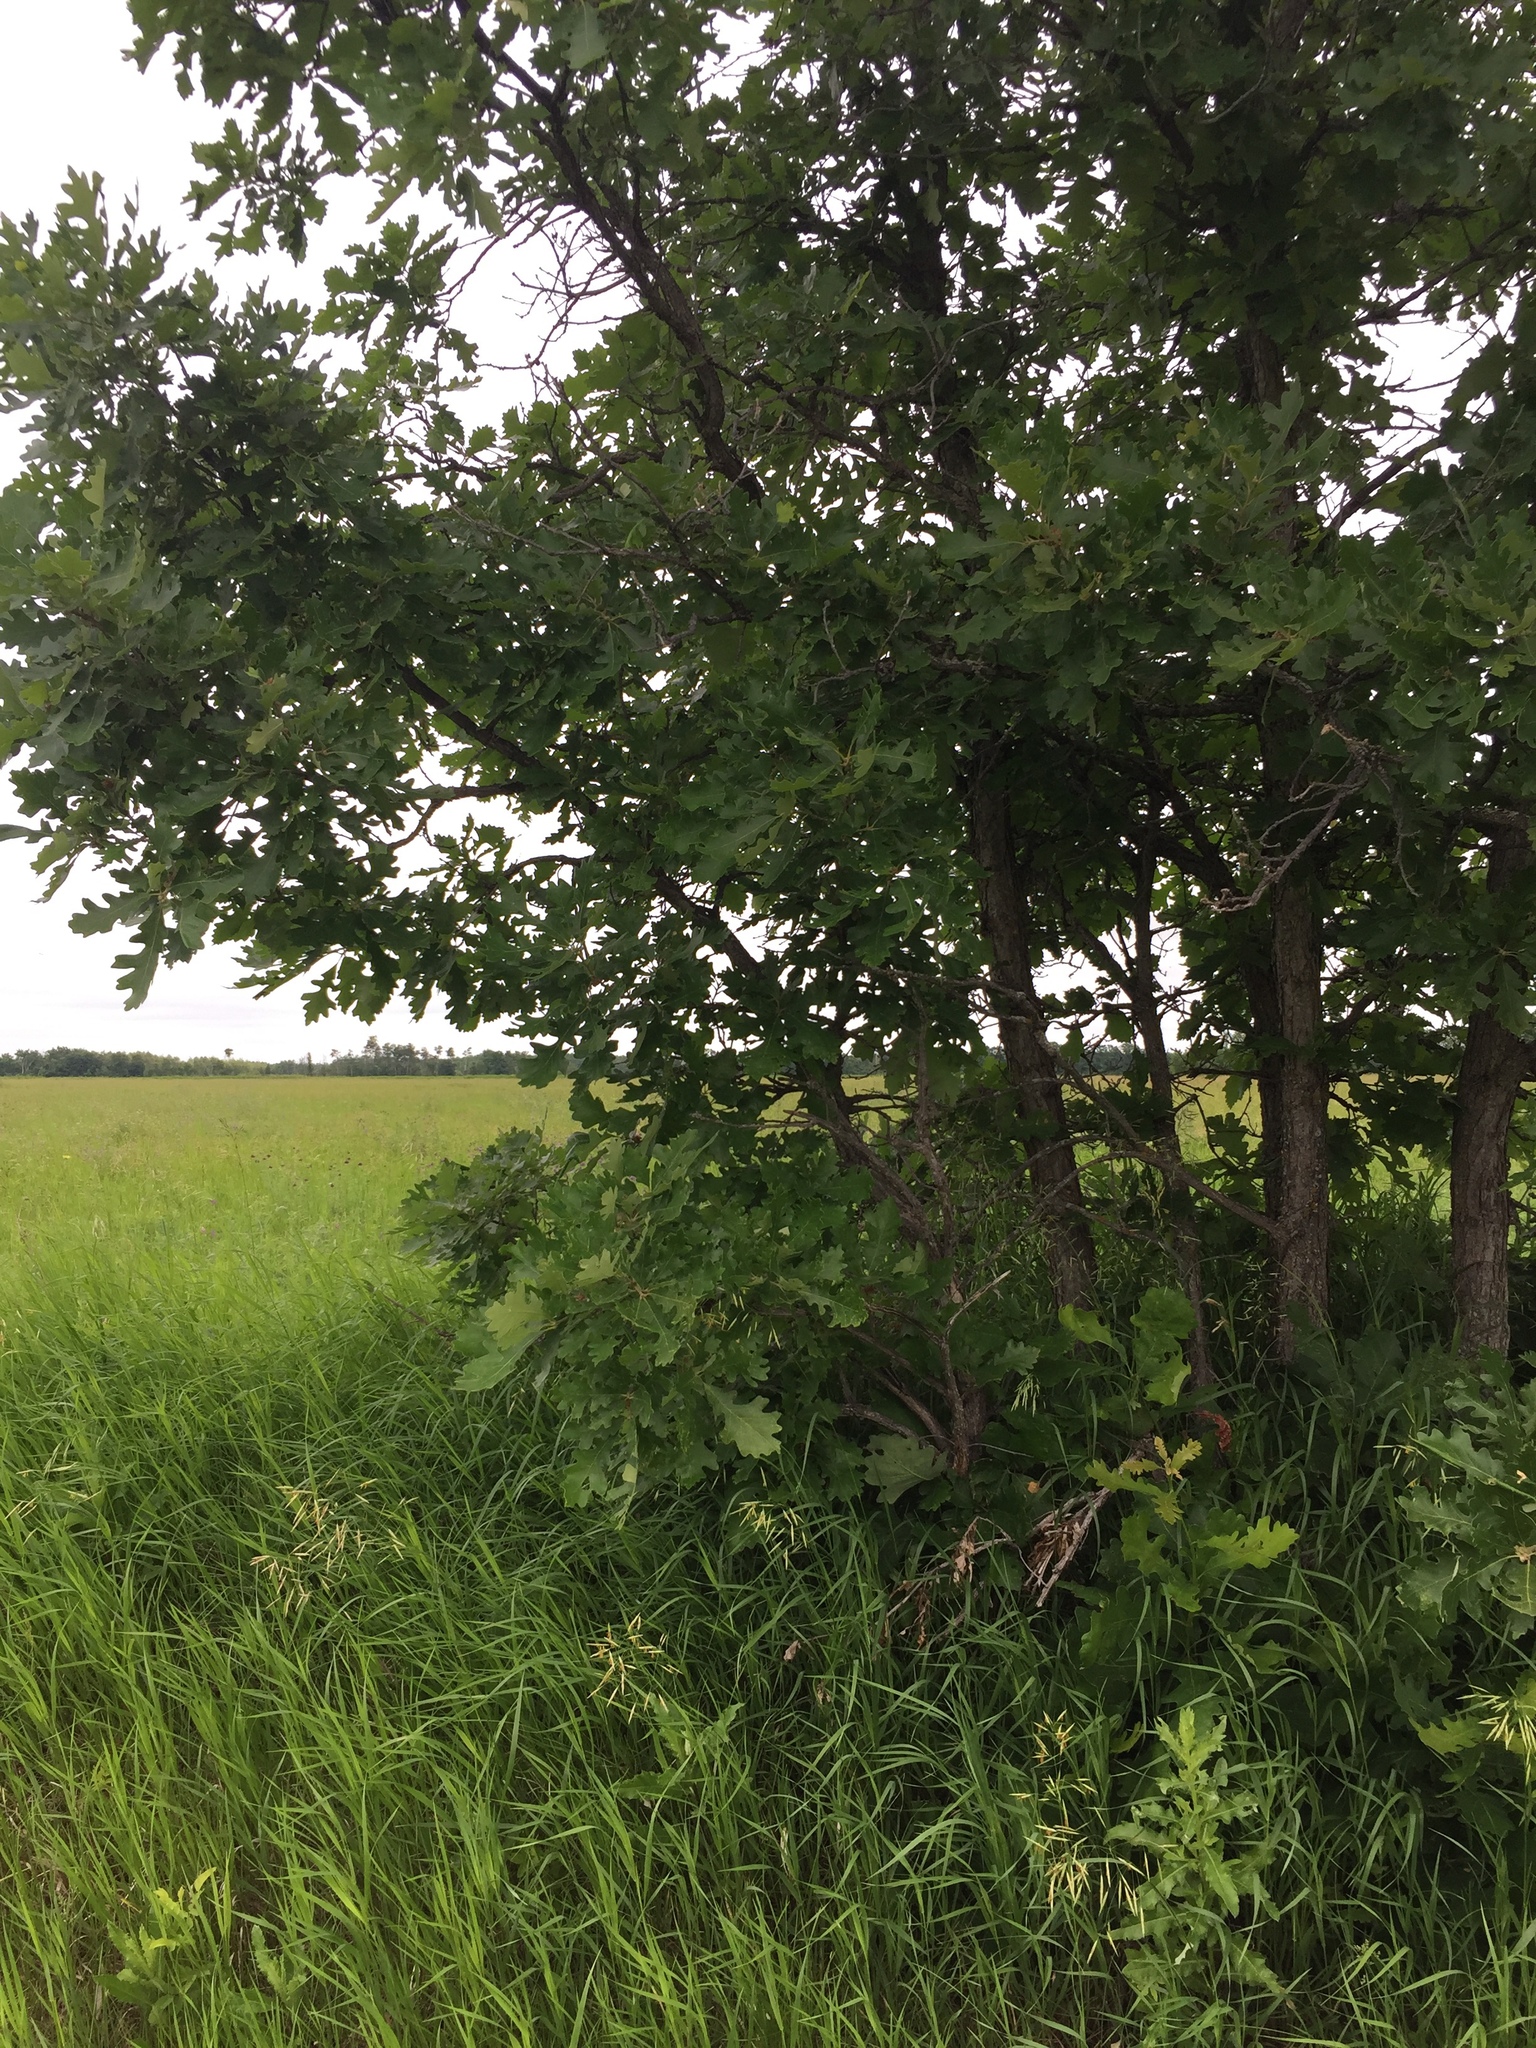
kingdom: Plantae
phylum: Tracheophyta
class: Magnoliopsida
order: Fagales
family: Fagaceae
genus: Quercus
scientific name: Quercus macrocarpa
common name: Bur oak
